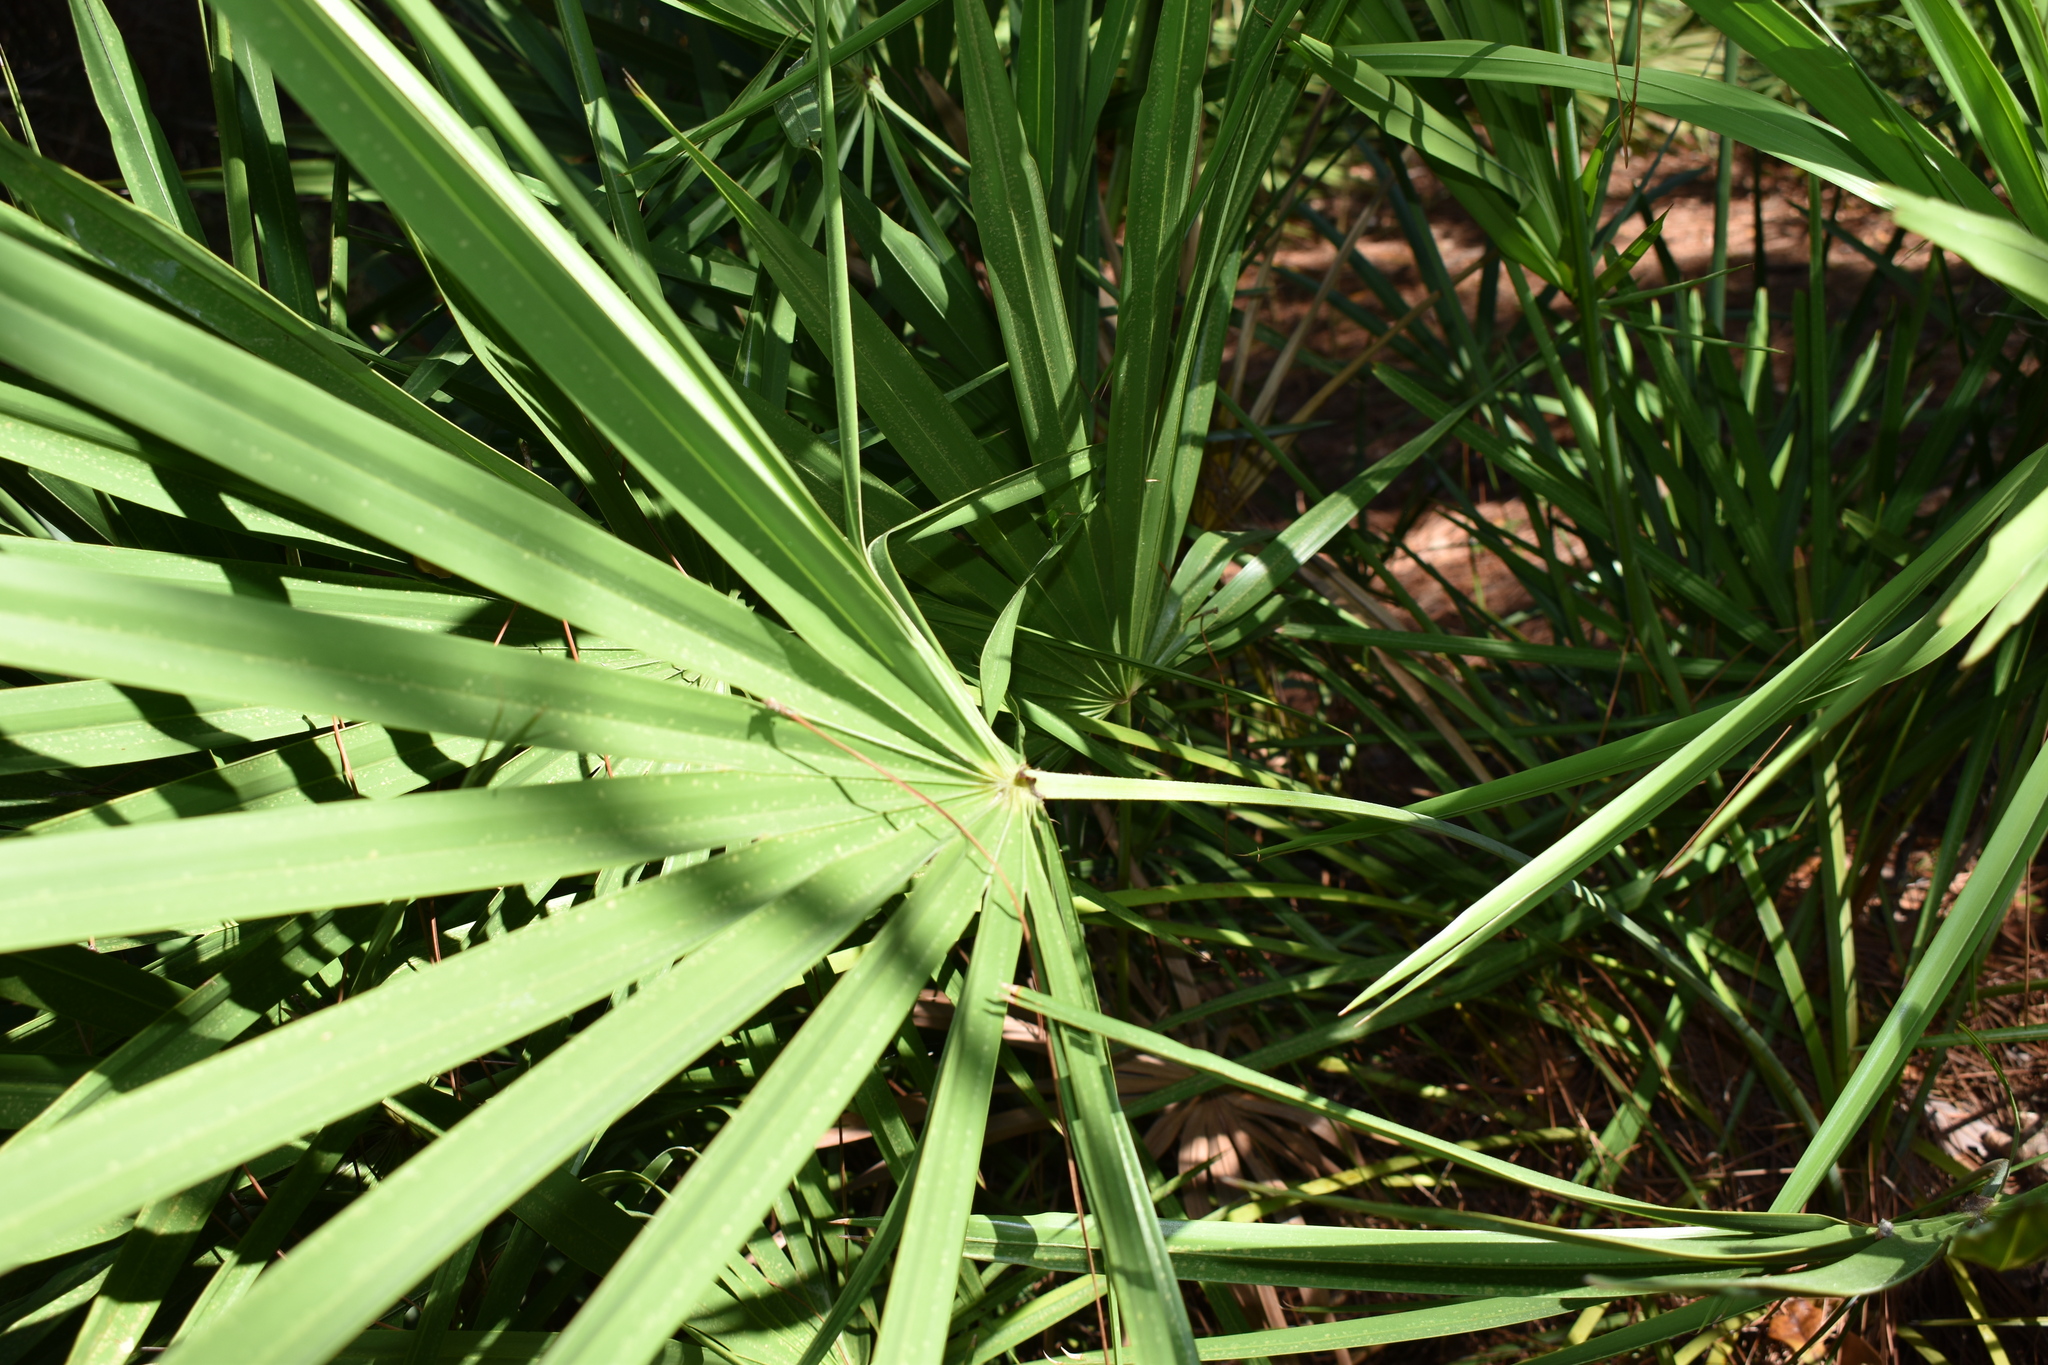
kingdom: Plantae
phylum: Tracheophyta
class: Liliopsida
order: Arecales
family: Arecaceae
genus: Serenoa
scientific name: Serenoa repens
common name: Saw-palmetto
